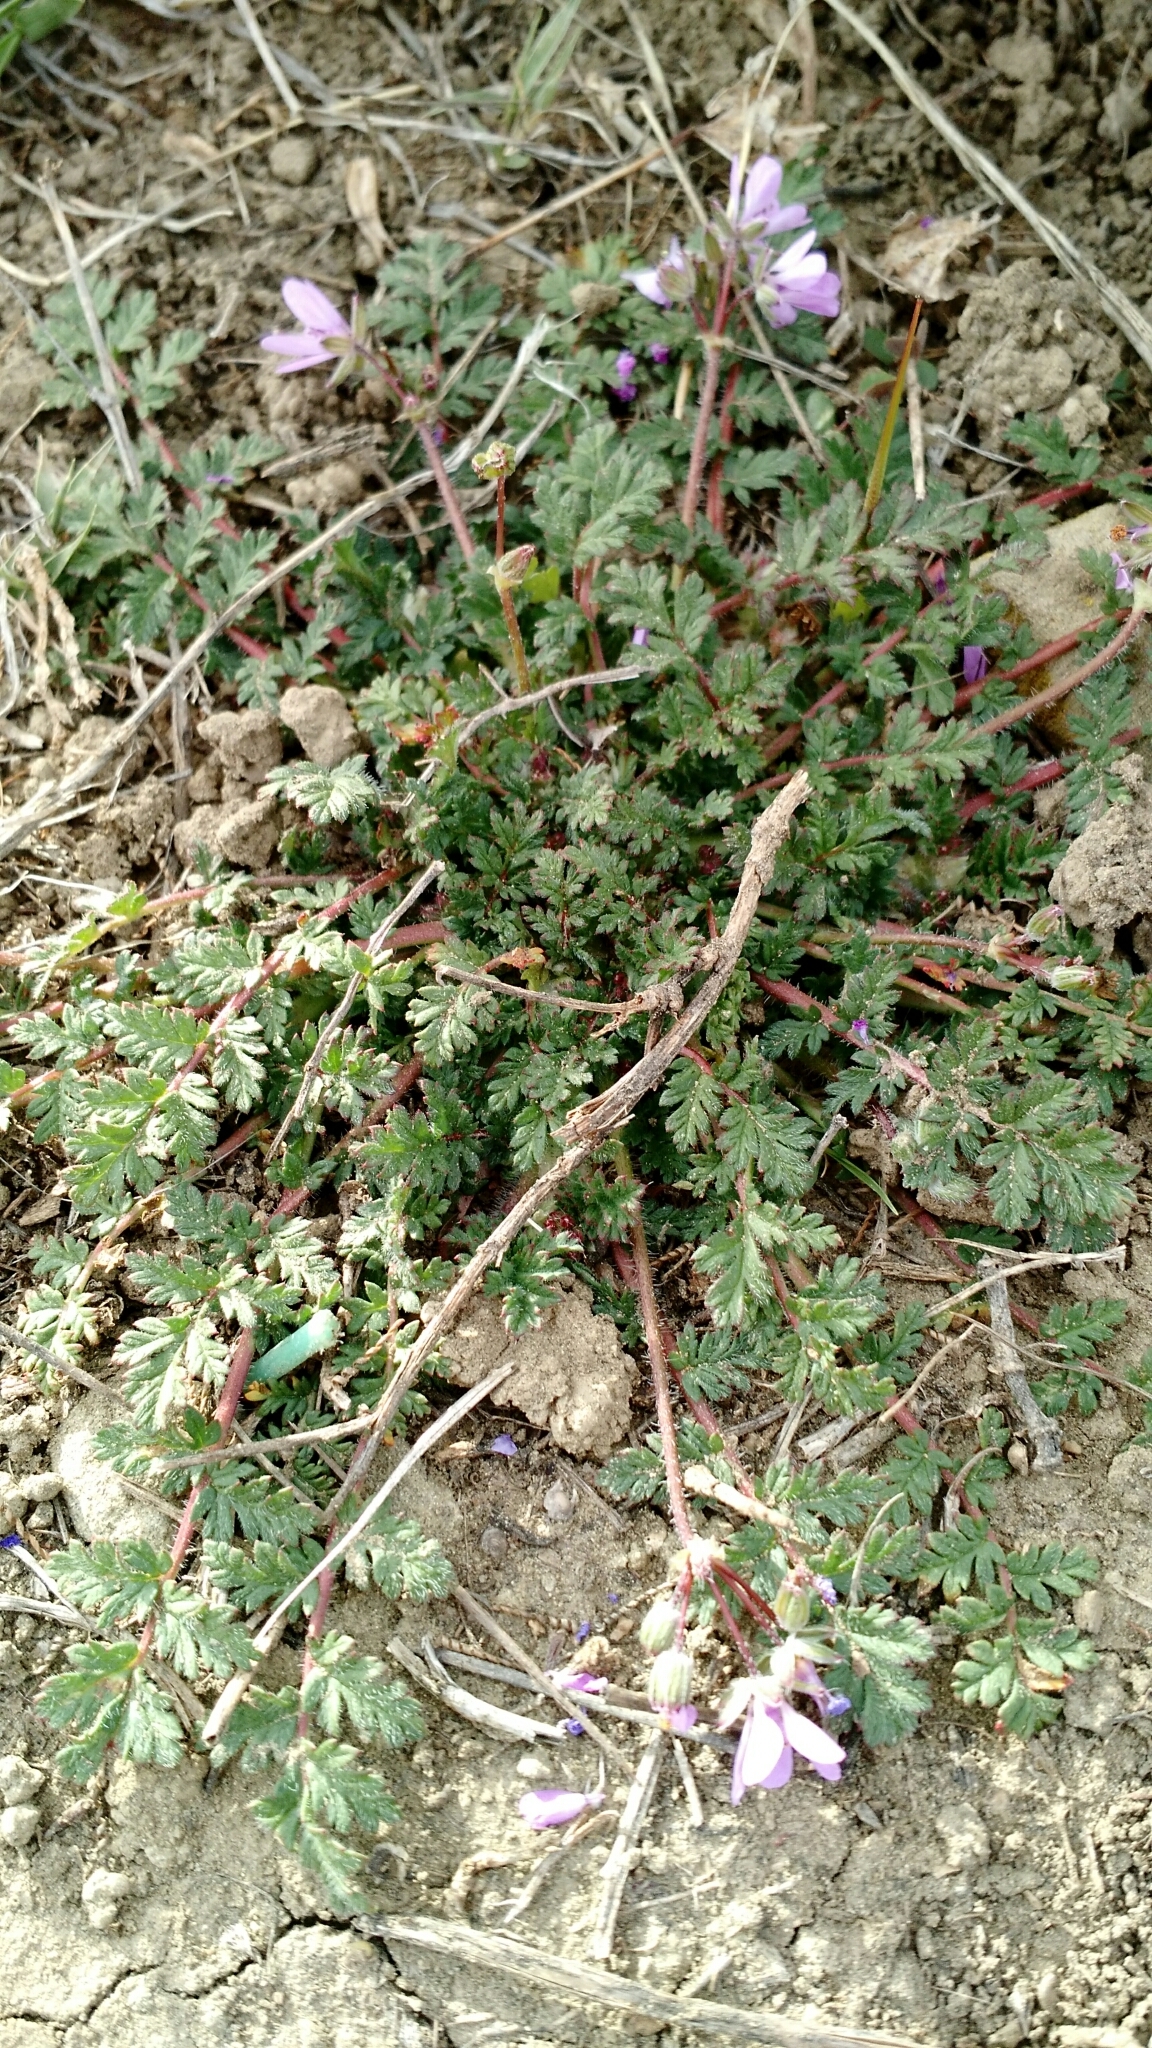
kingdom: Plantae
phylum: Tracheophyta
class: Magnoliopsida
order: Geraniales
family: Geraniaceae
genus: Erodium
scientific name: Erodium cicutarium
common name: Common stork's-bill
